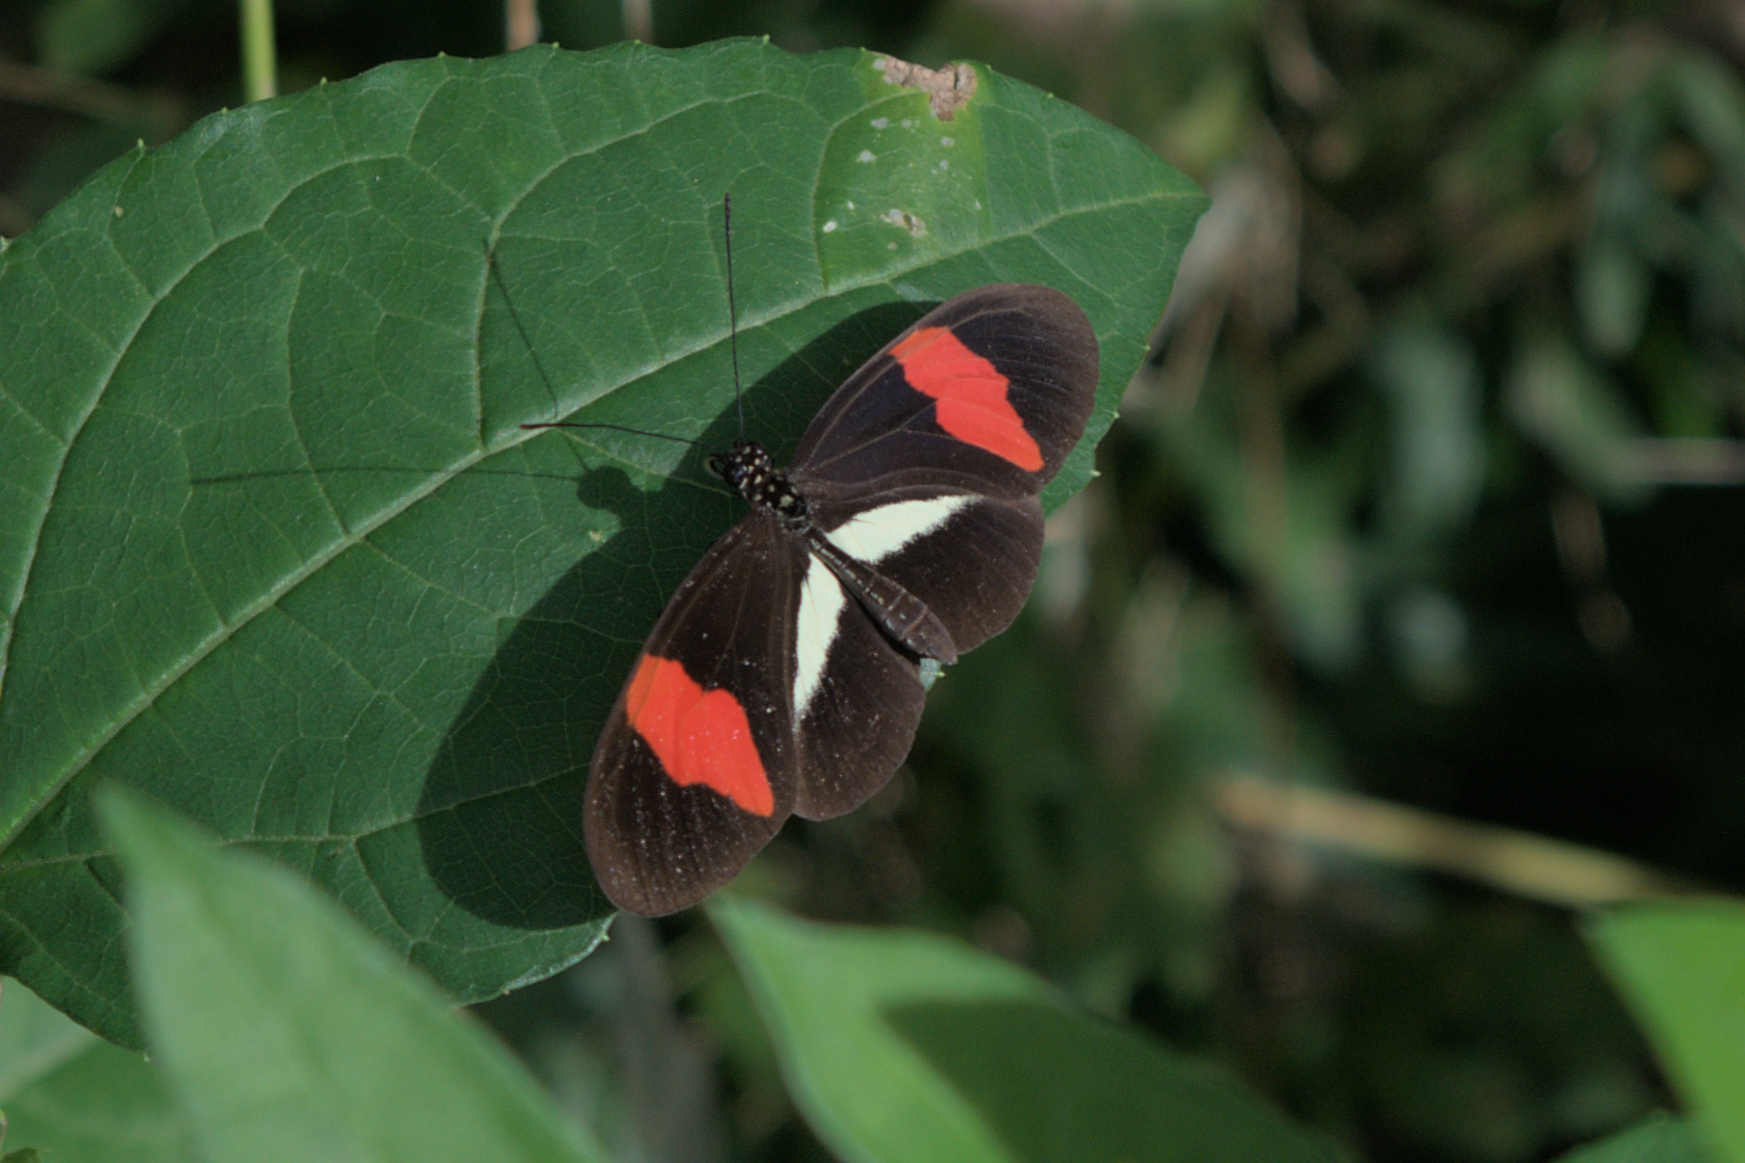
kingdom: Animalia
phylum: Arthropoda
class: Insecta
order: Lepidoptera
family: Nymphalidae
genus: Tirumala
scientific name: Tirumala petiverana
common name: Blue monarch
